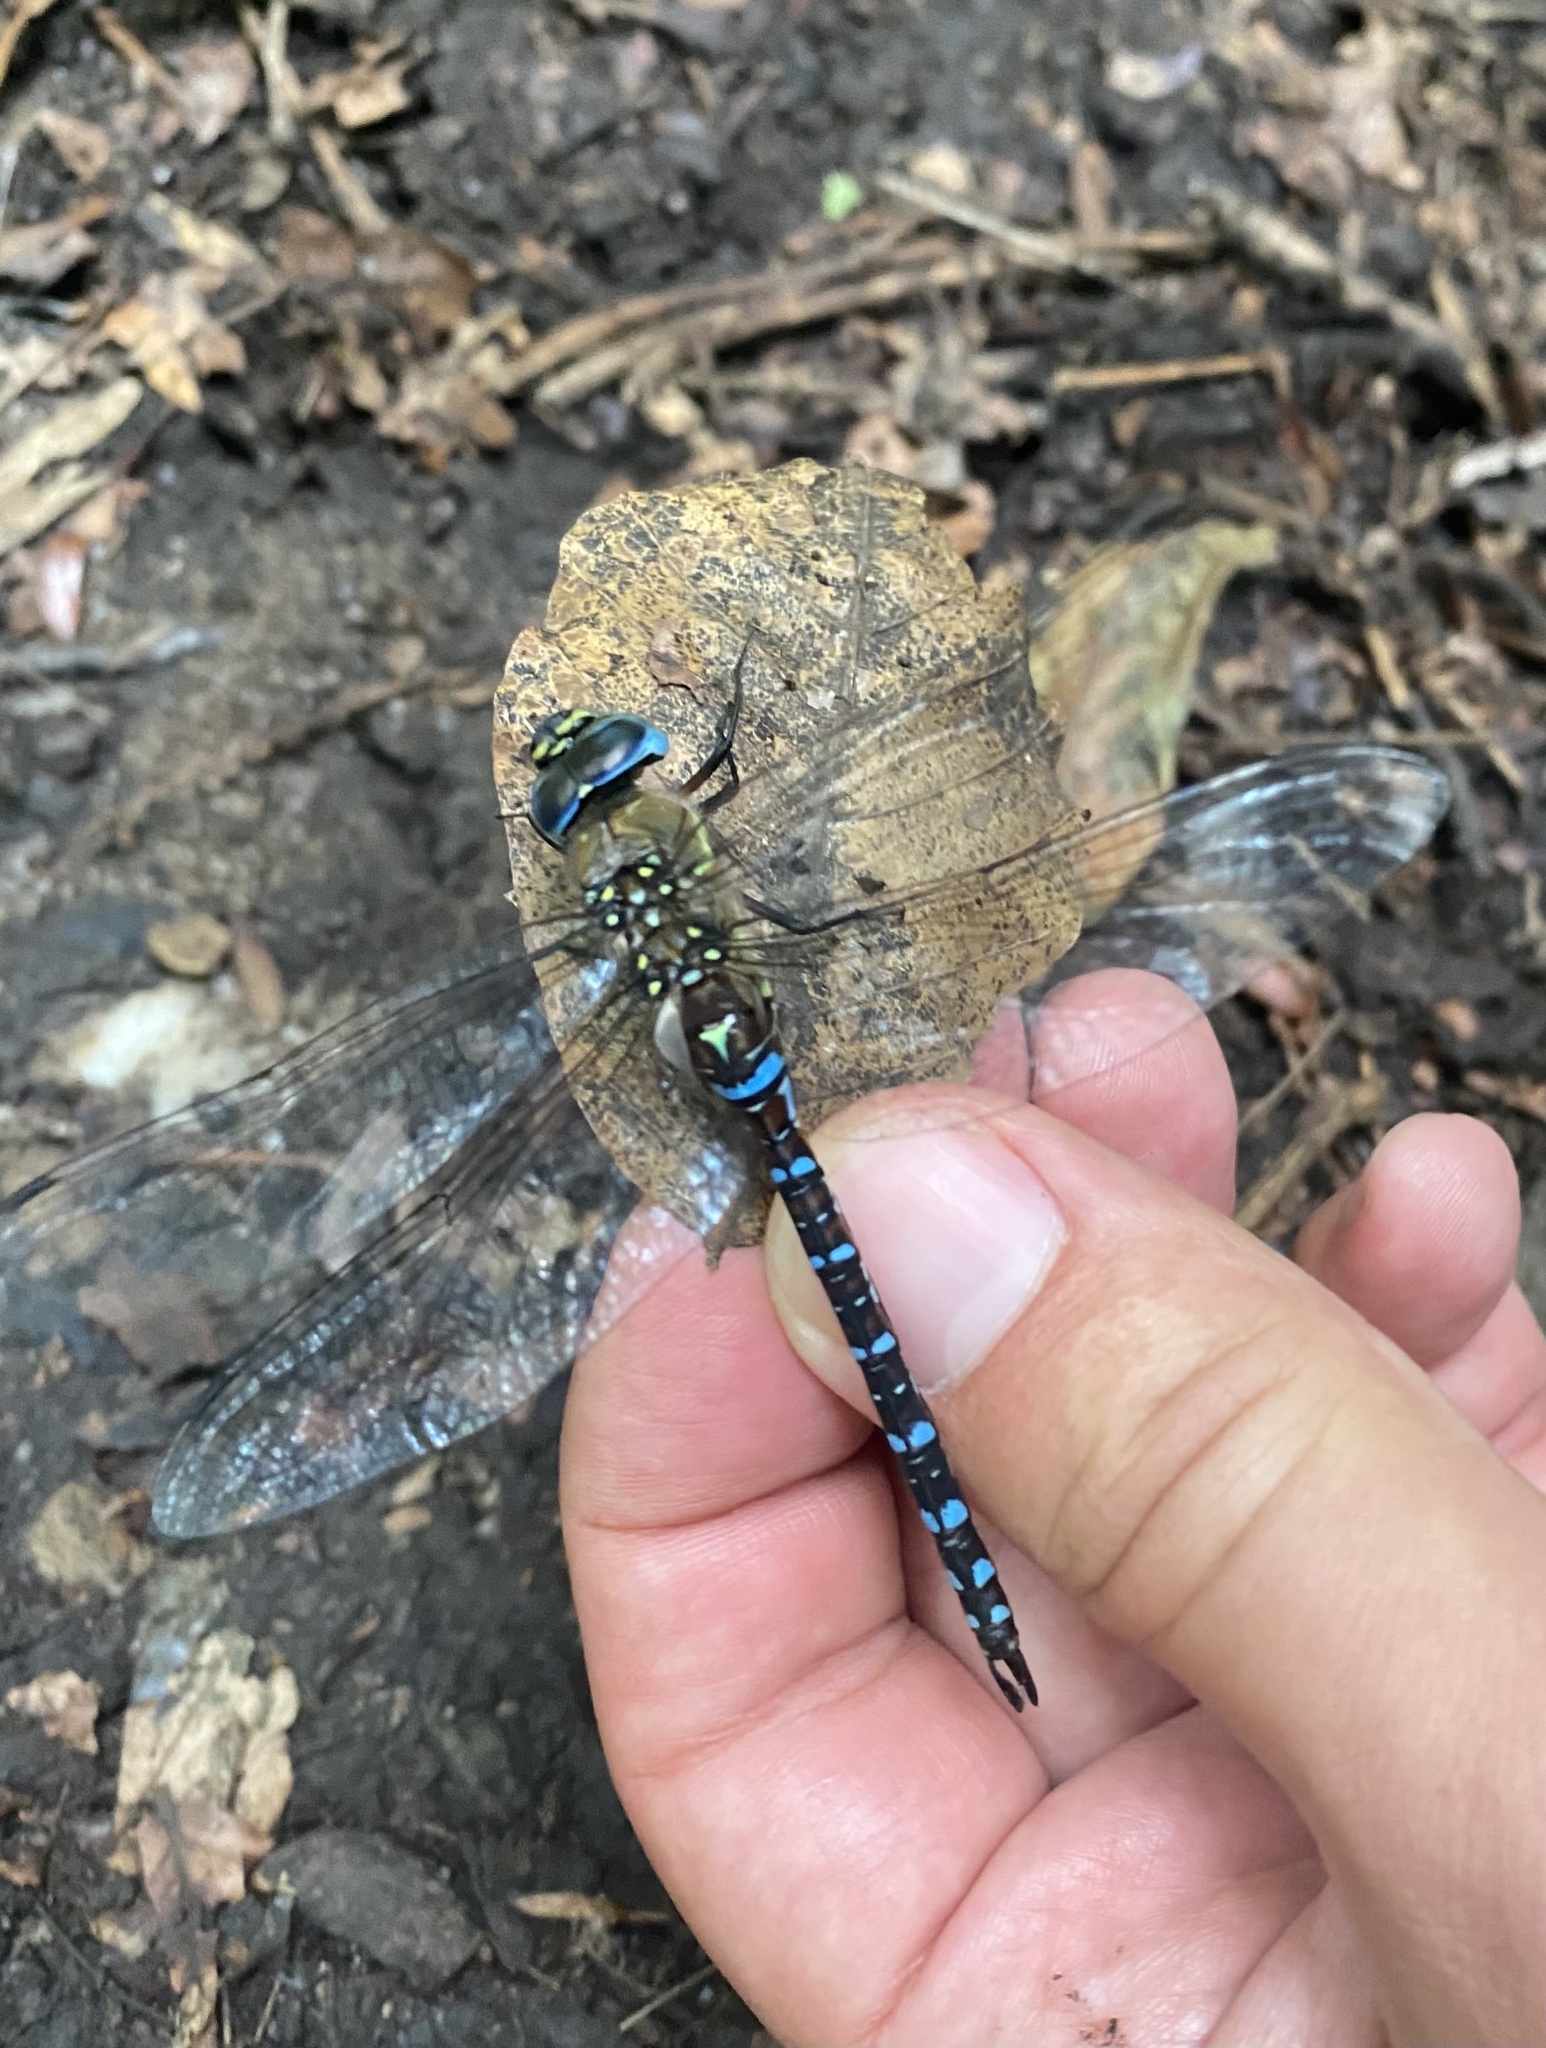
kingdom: Animalia
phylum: Arthropoda
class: Insecta
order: Odonata
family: Aeshnidae
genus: Aeshna
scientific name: Aeshna mixta
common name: Migrant hawker
